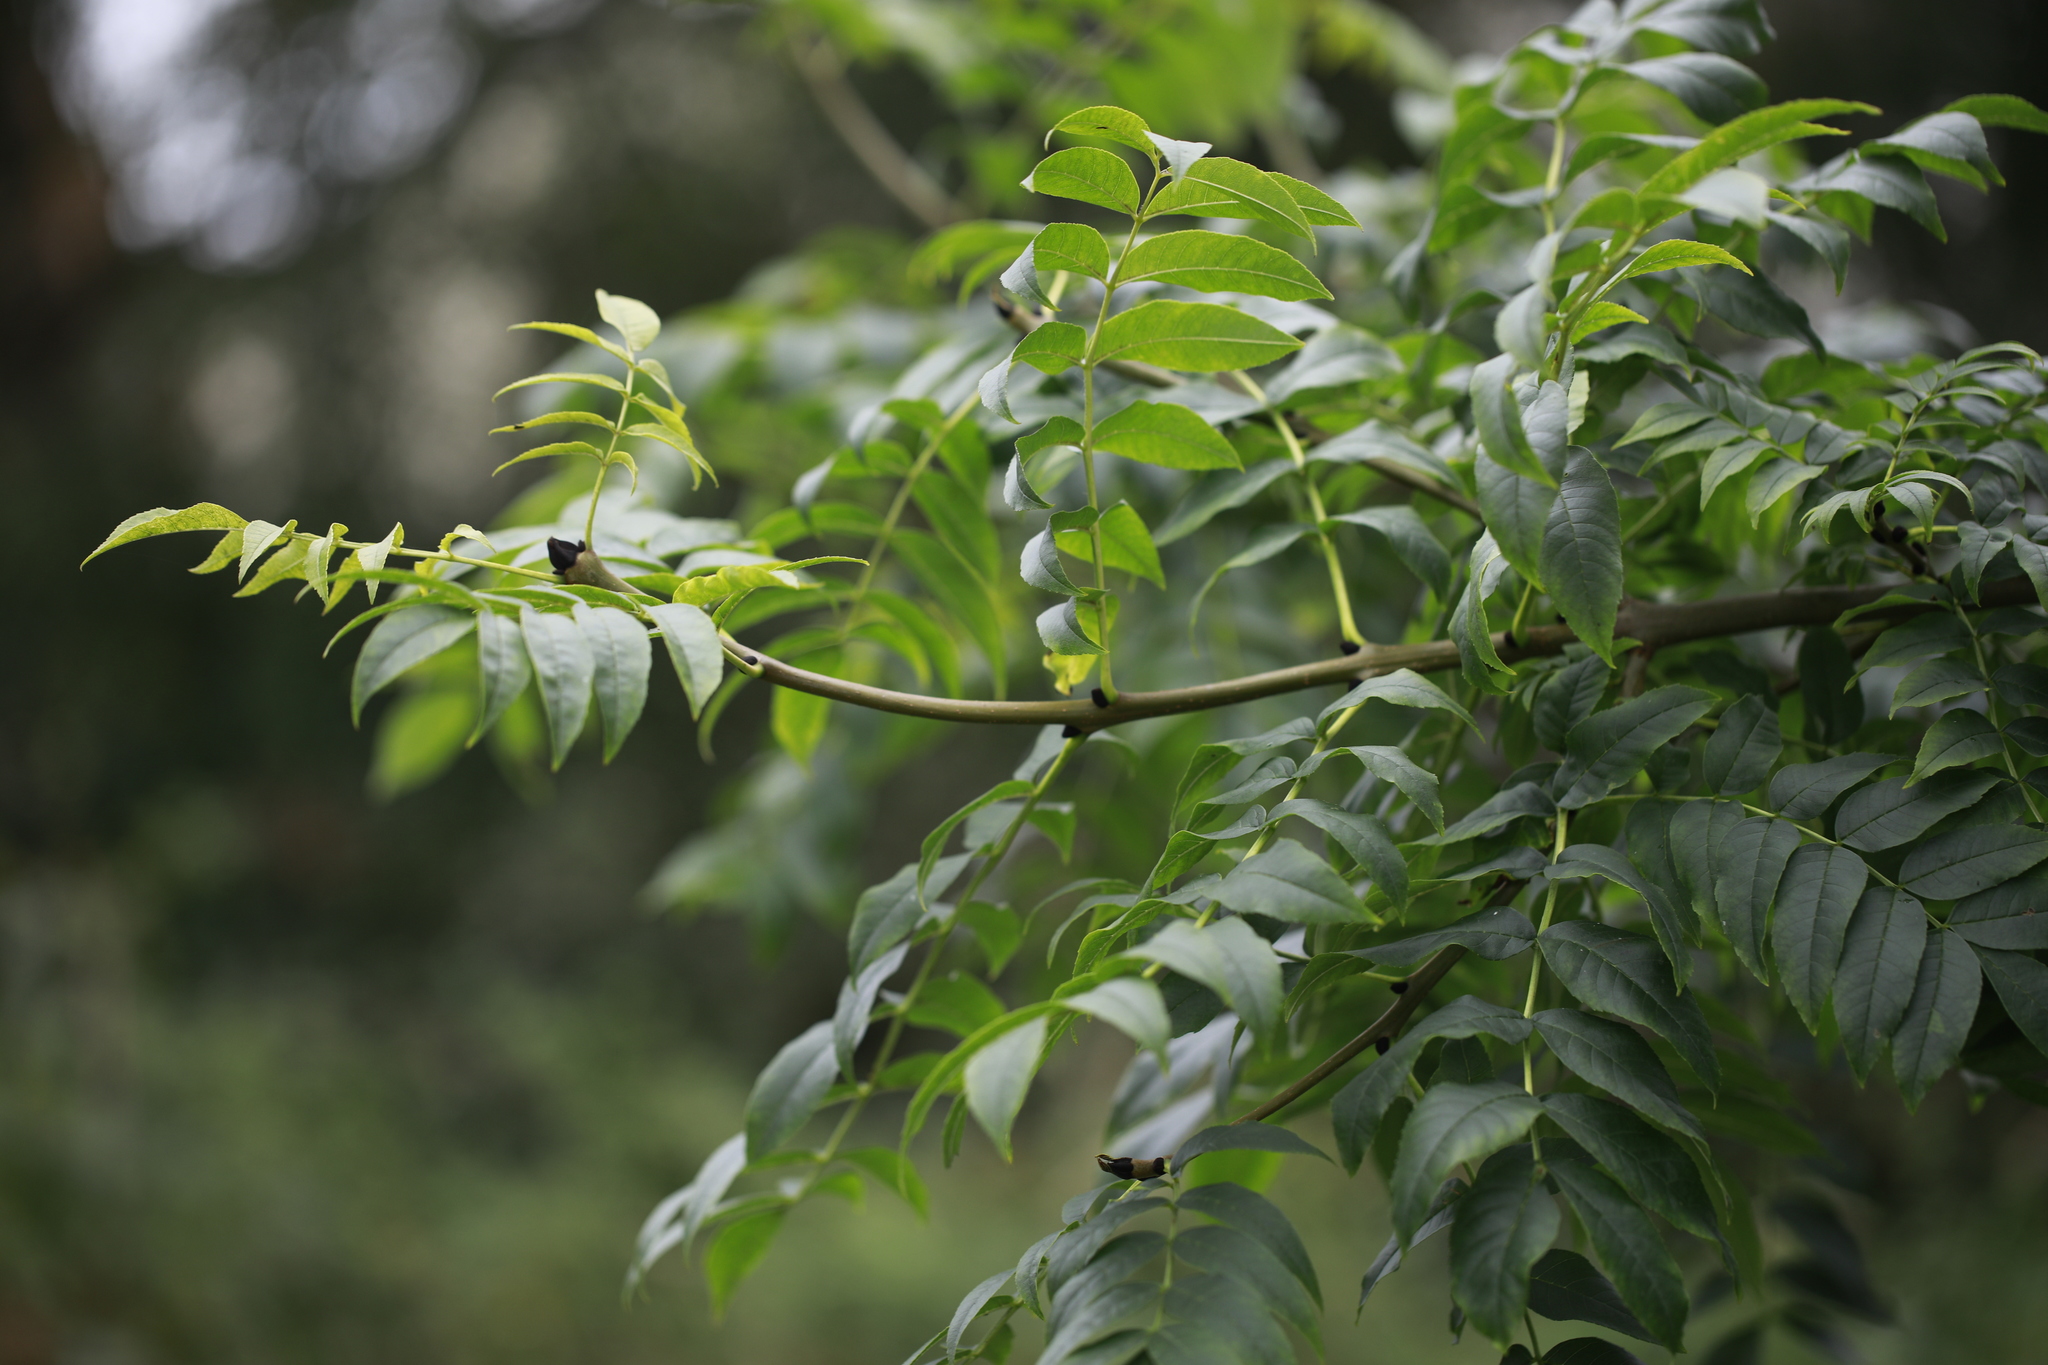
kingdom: Plantae
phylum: Tracheophyta
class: Magnoliopsida
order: Lamiales
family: Oleaceae
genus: Fraxinus
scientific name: Fraxinus excelsior
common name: European ash
